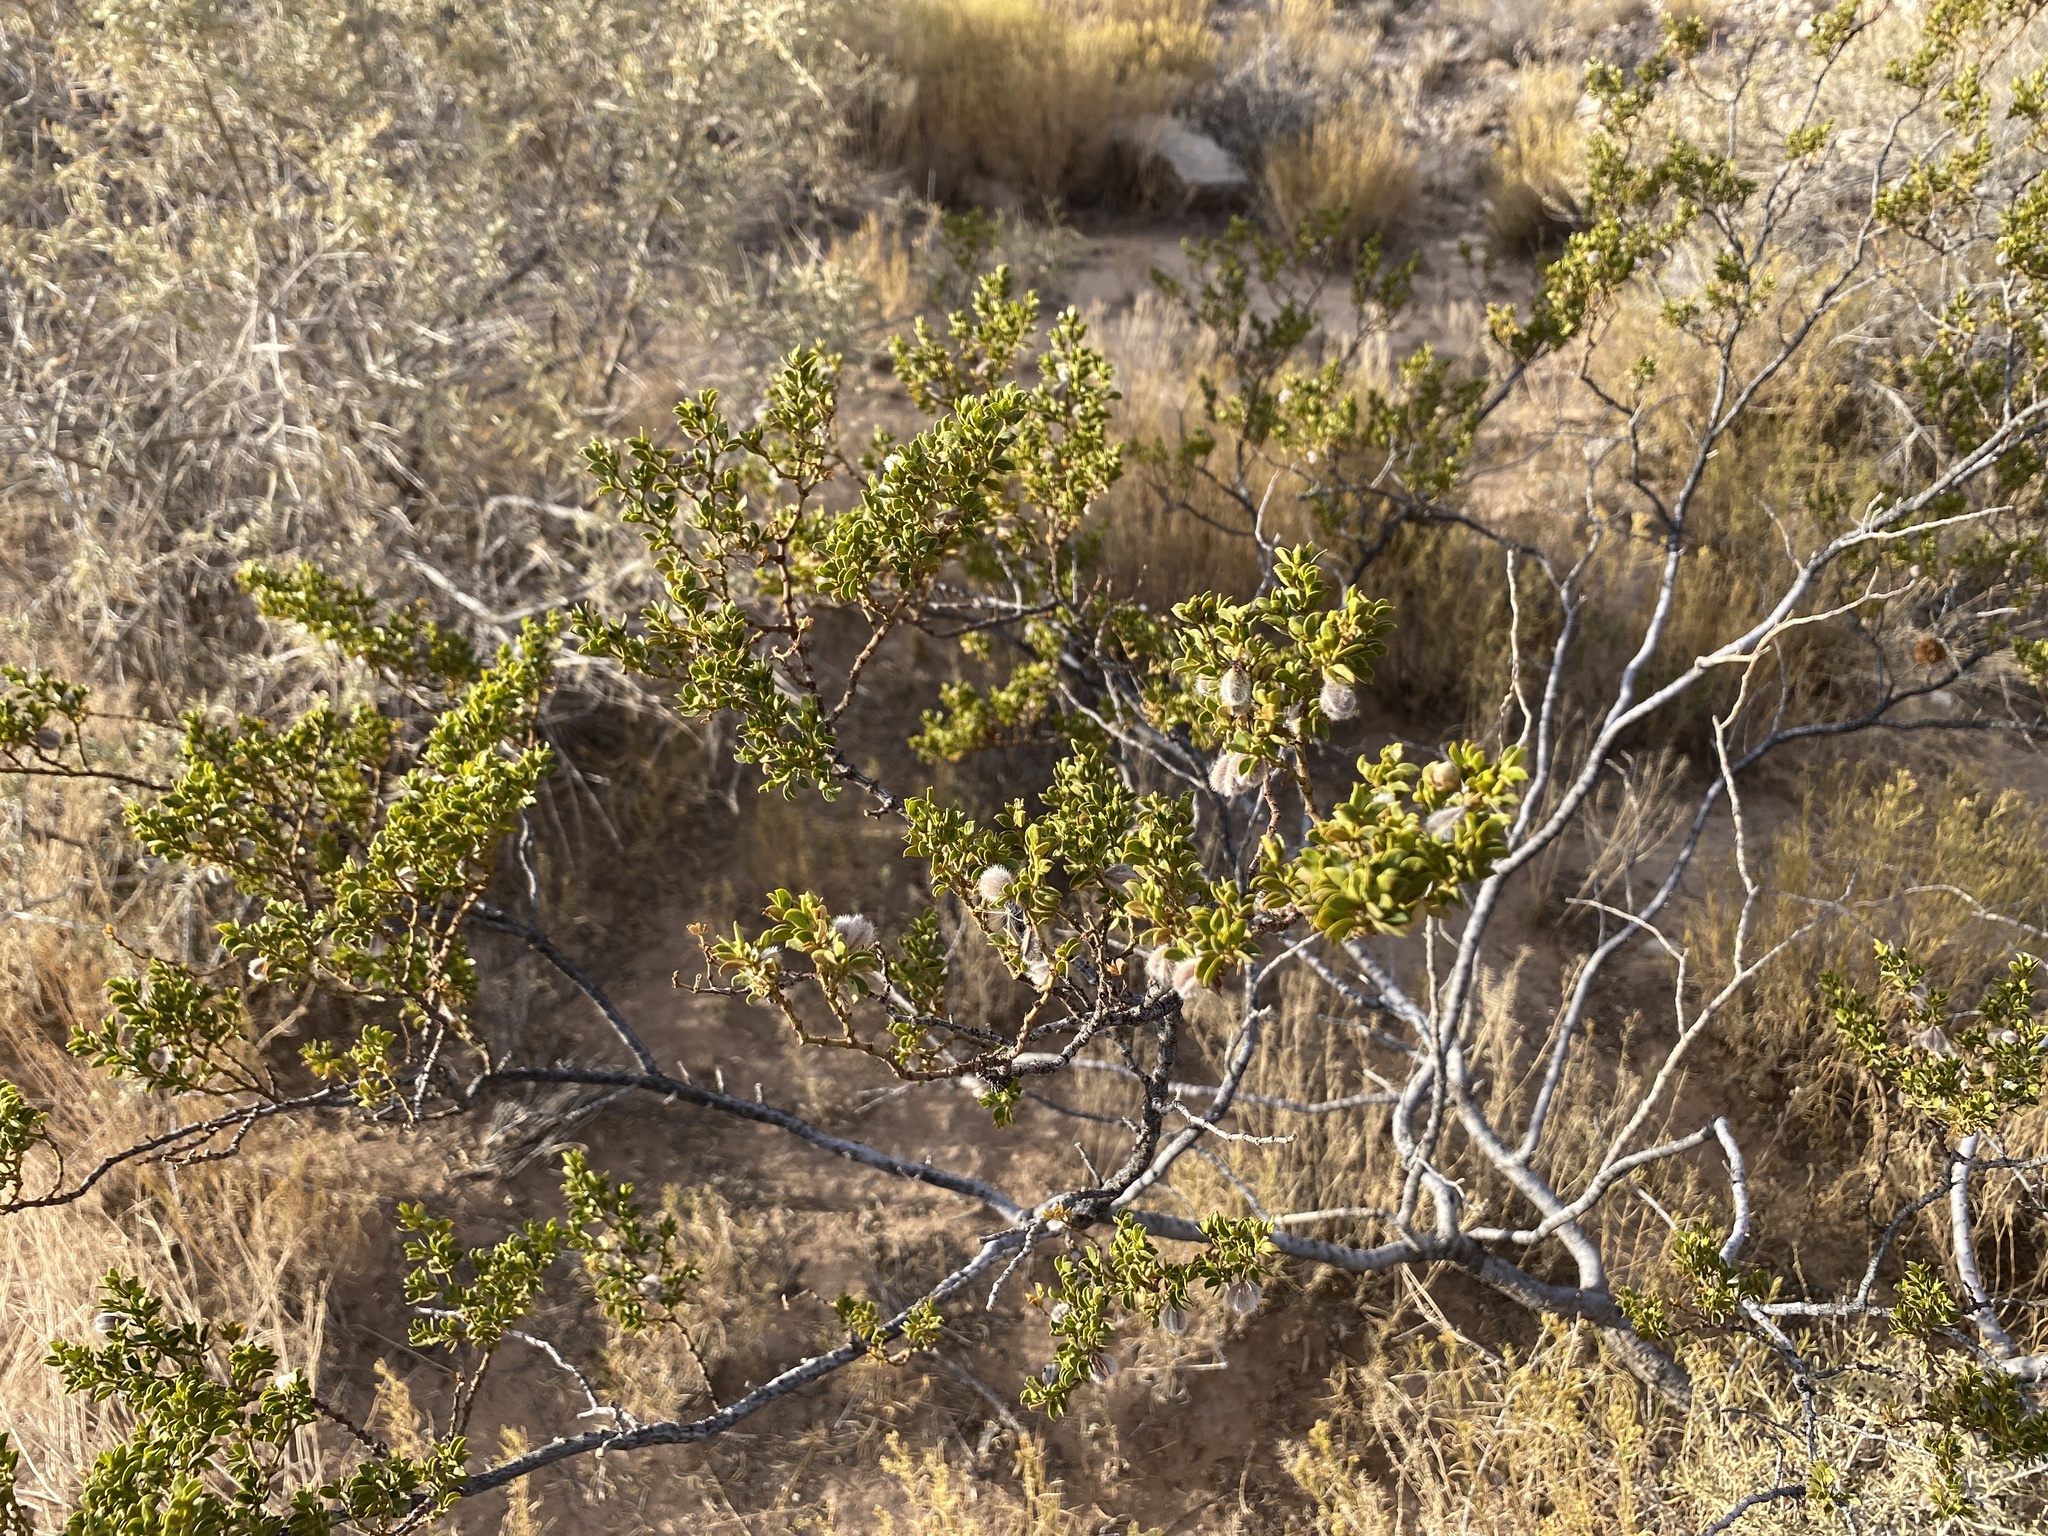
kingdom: Plantae
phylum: Tracheophyta
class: Magnoliopsida
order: Zygophyllales
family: Zygophyllaceae
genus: Larrea
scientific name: Larrea tridentata
